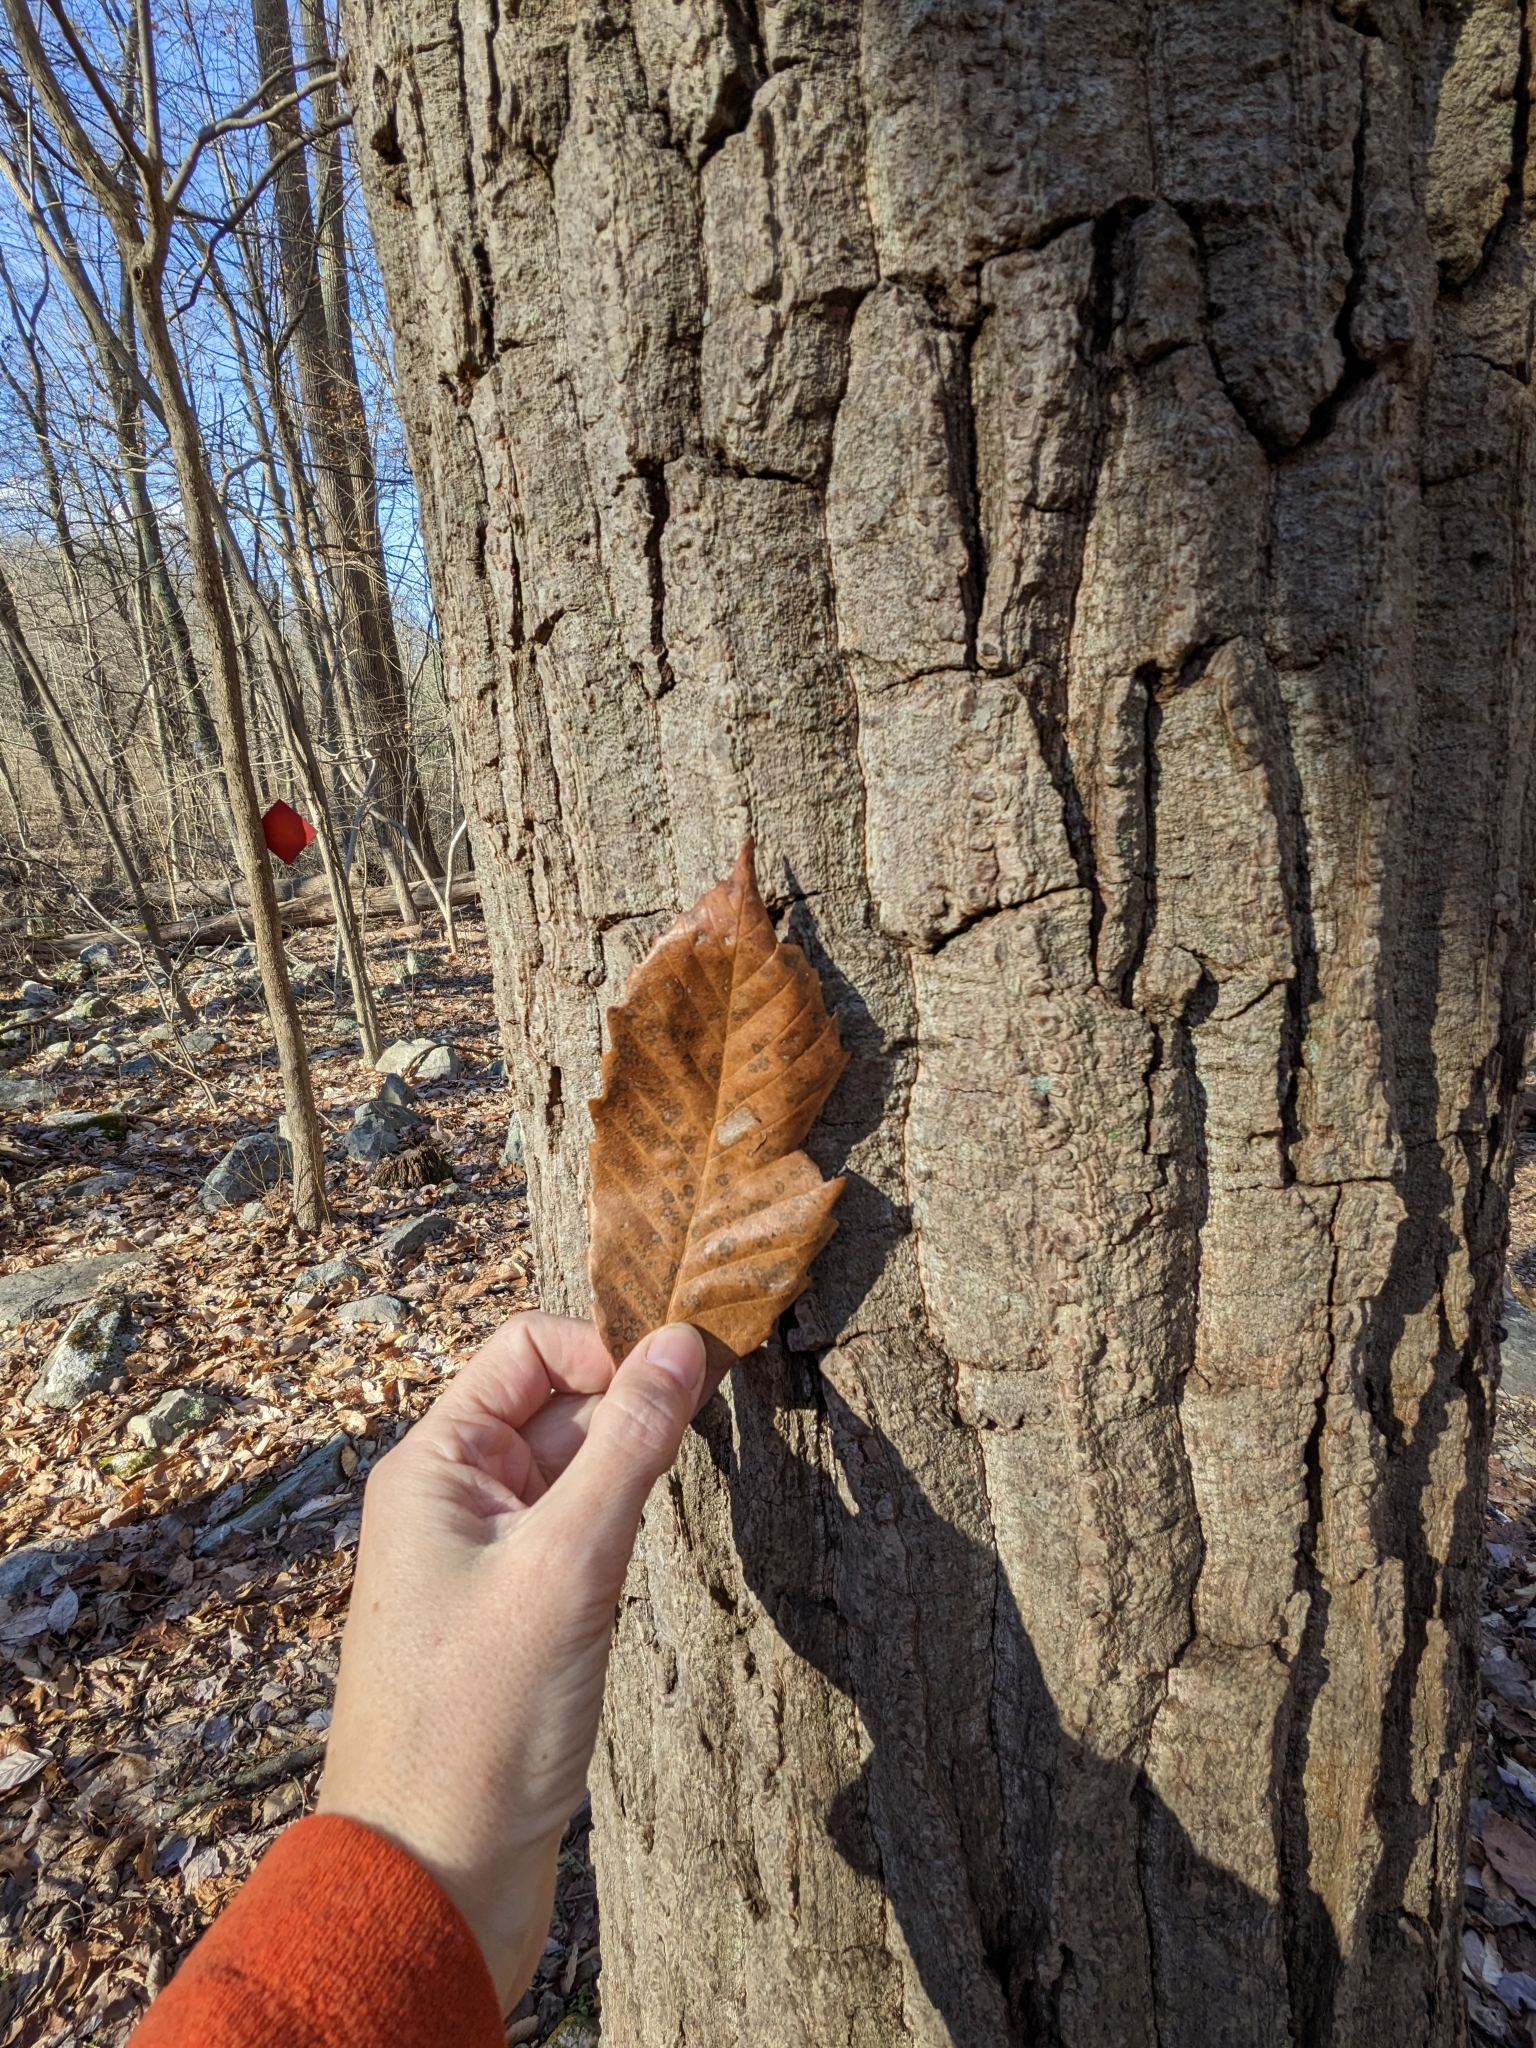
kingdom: Plantae
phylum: Tracheophyta
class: Magnoliopsida
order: Fagales
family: Fagaceae
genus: Quercus
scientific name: Quercus montana
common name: Chestnut oak
